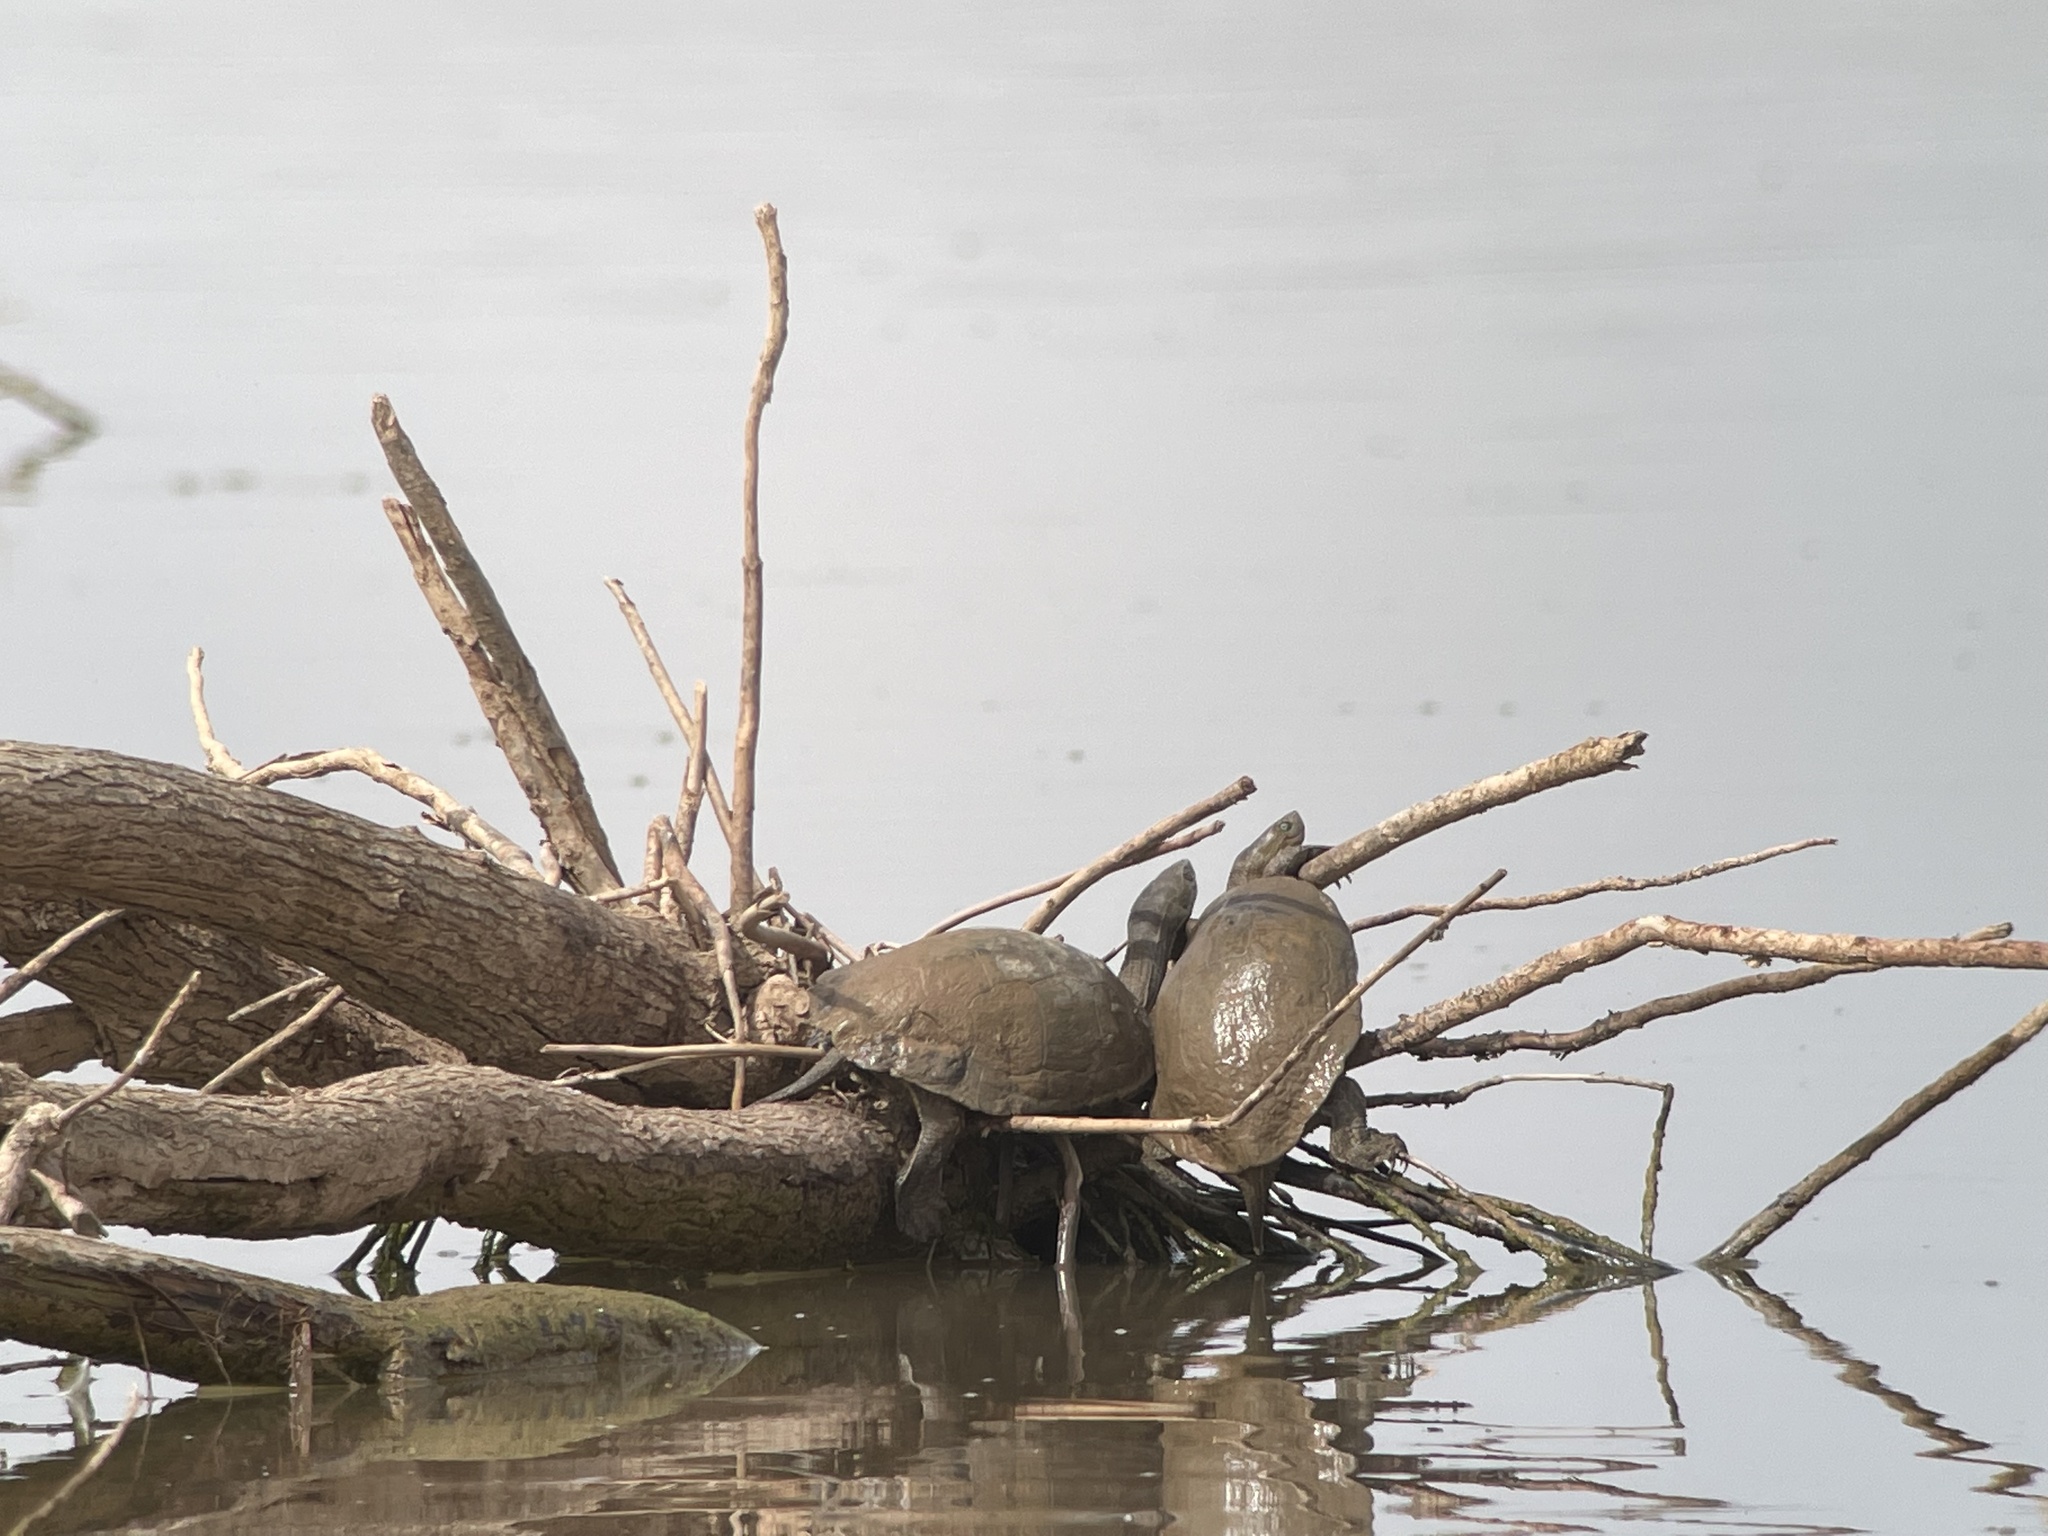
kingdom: Animalia
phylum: Chordata
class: Testudines
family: Geoemydidae
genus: Mauremys
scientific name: Mauremys leprosa
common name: Mediterranean pond turtle
